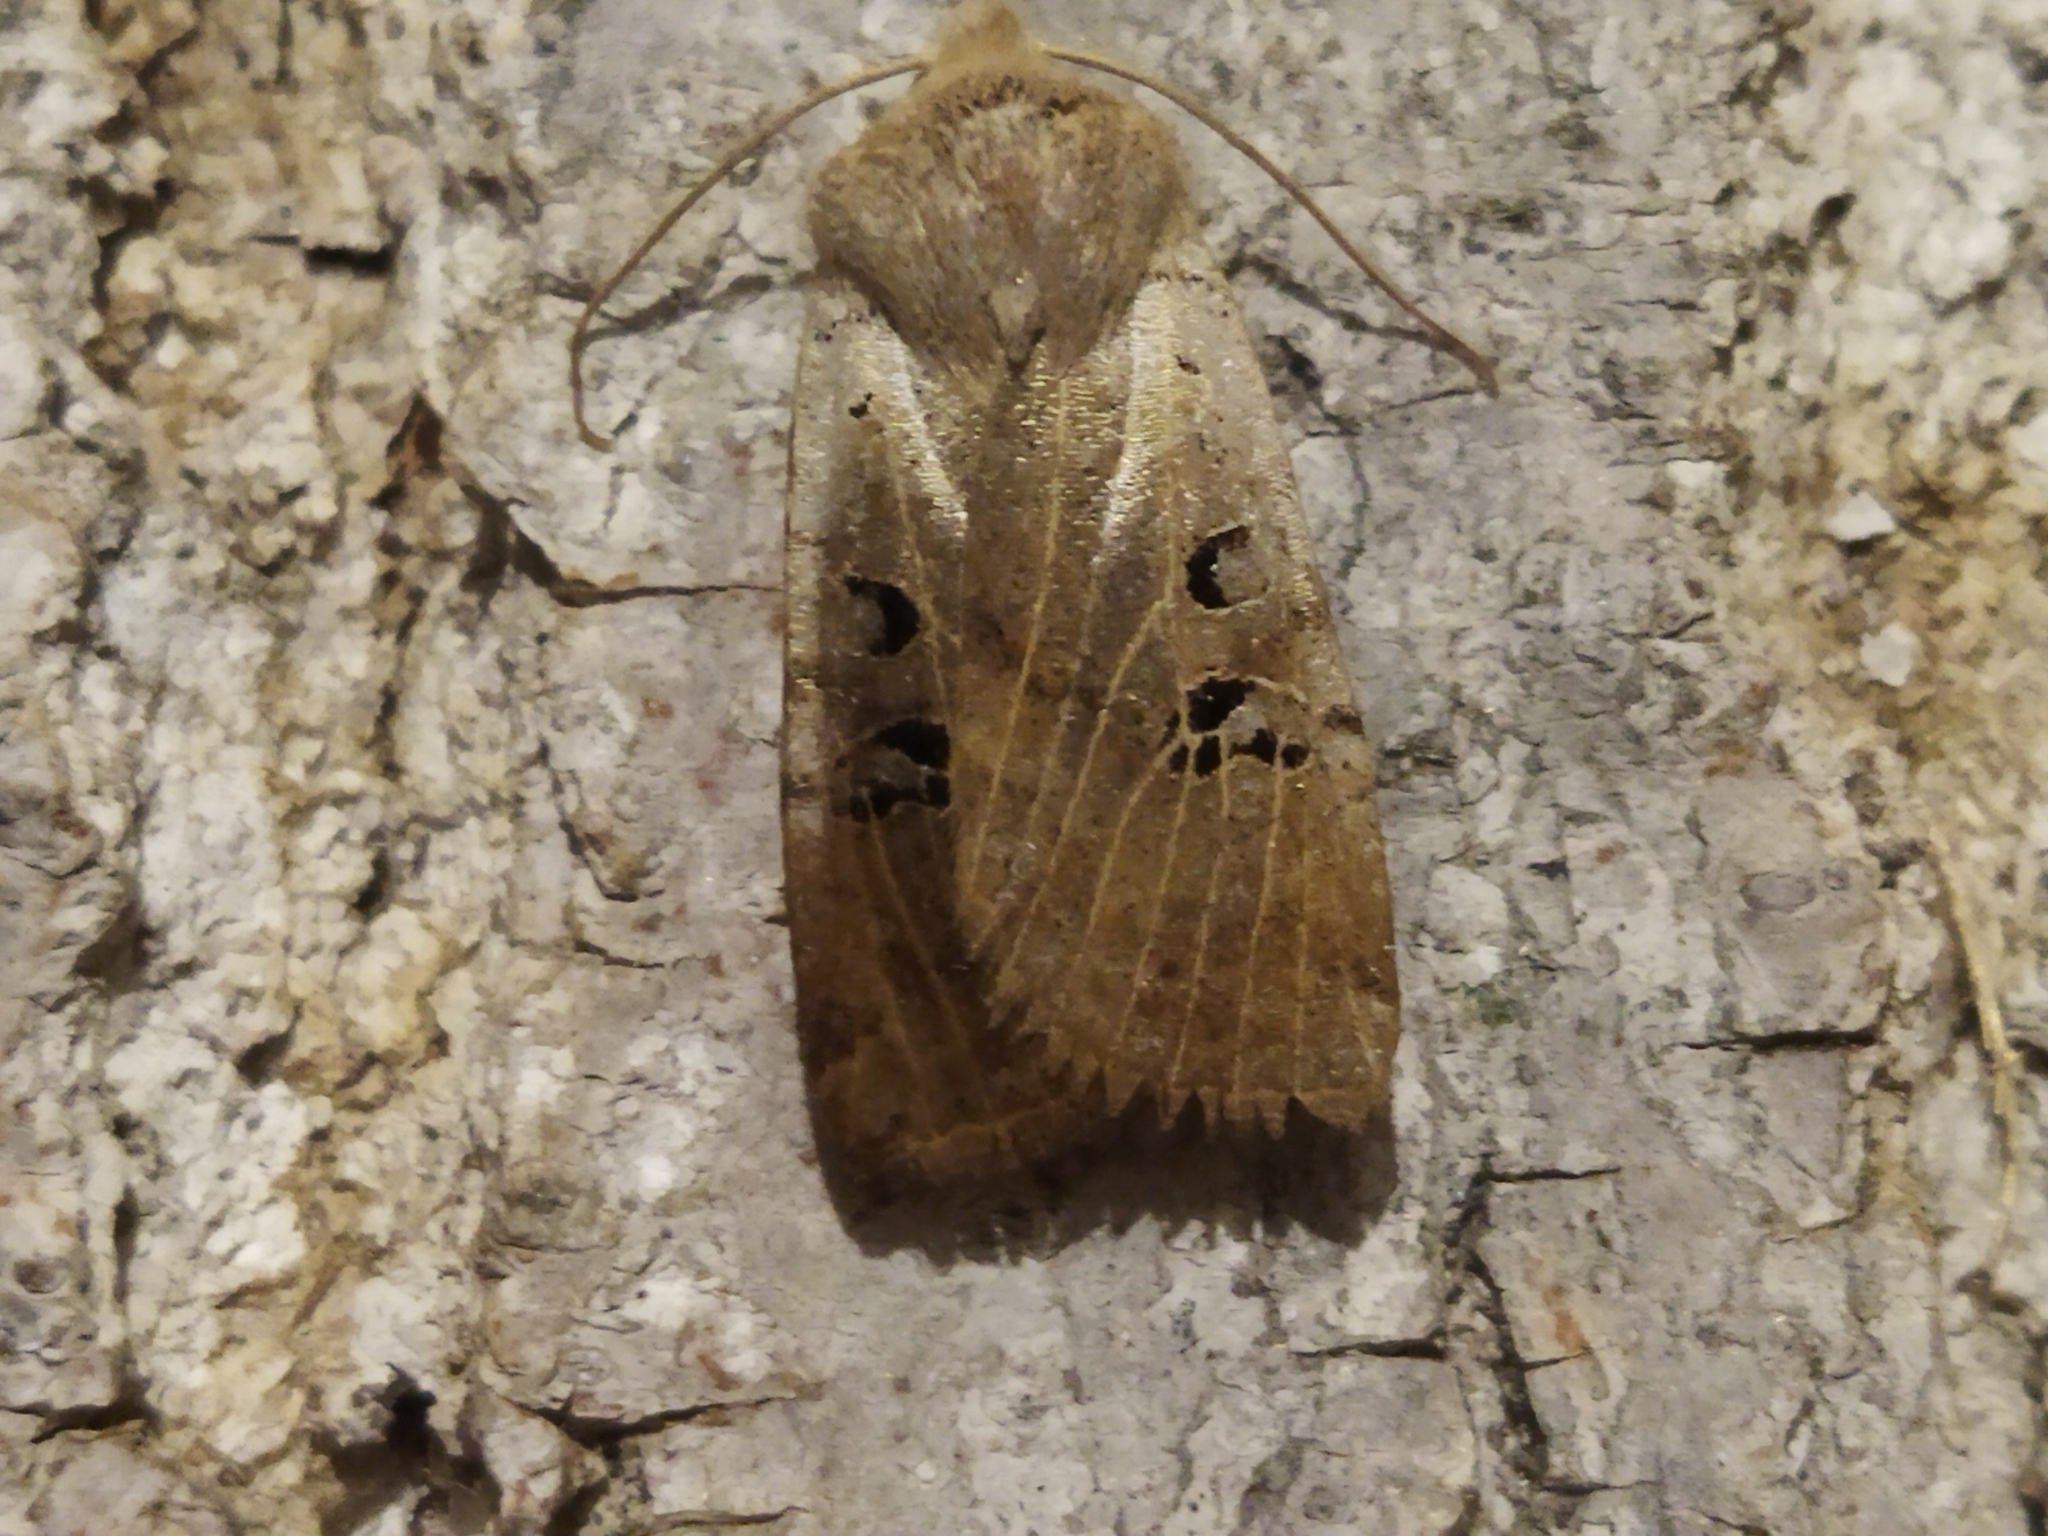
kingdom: Animalia
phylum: Arthropoda
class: Insecta
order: Lepidoptera
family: Noctuidae
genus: Conistra
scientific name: Conistra rubiginosa
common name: Black-spotted chestnut
